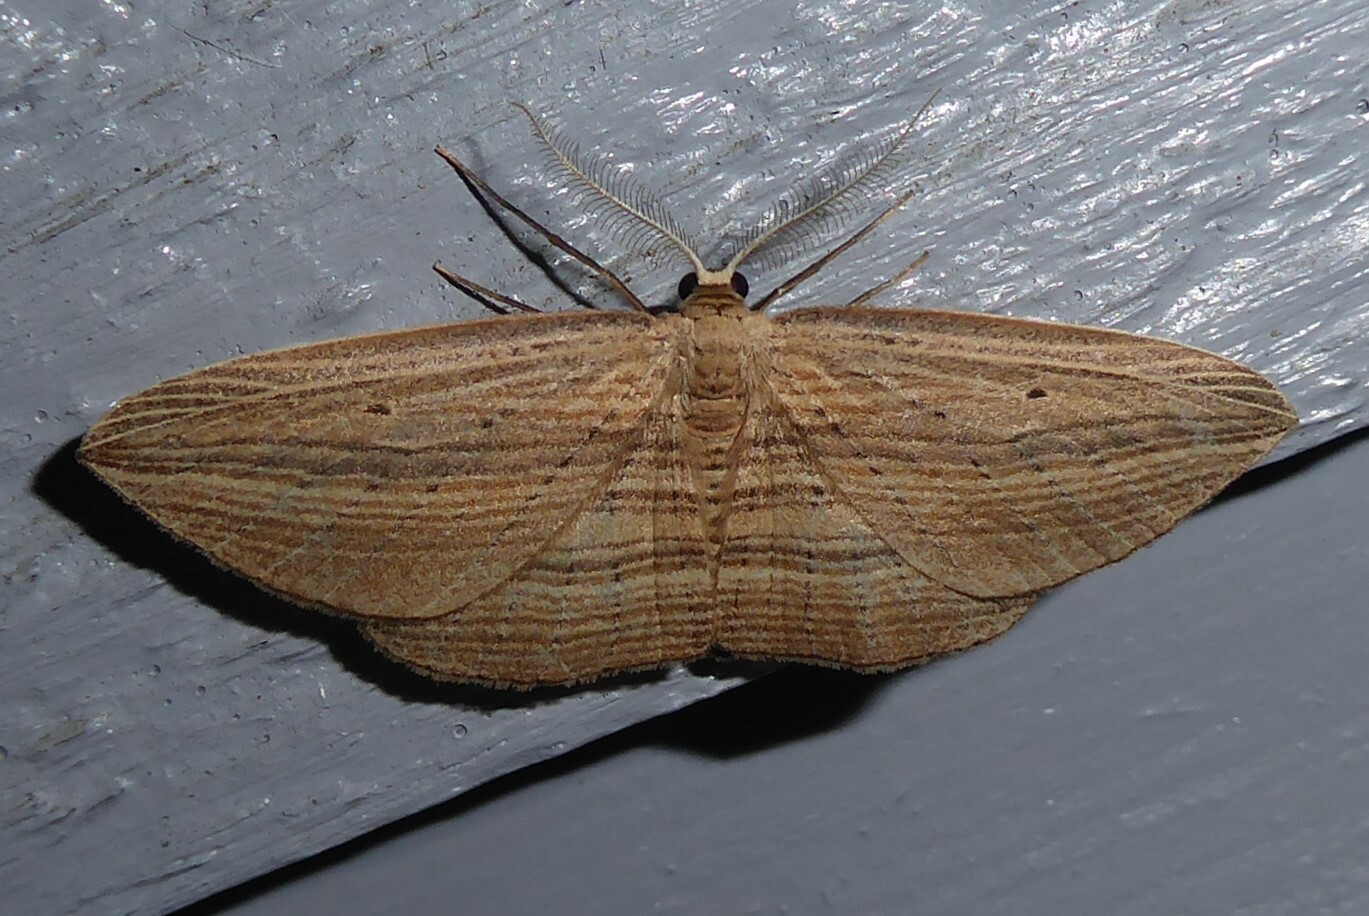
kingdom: Animalia
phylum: Arthropoda
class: Insecta
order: Lepidoptera
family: Geometridae
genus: Epiphryne
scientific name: Epiphryne verriculata
